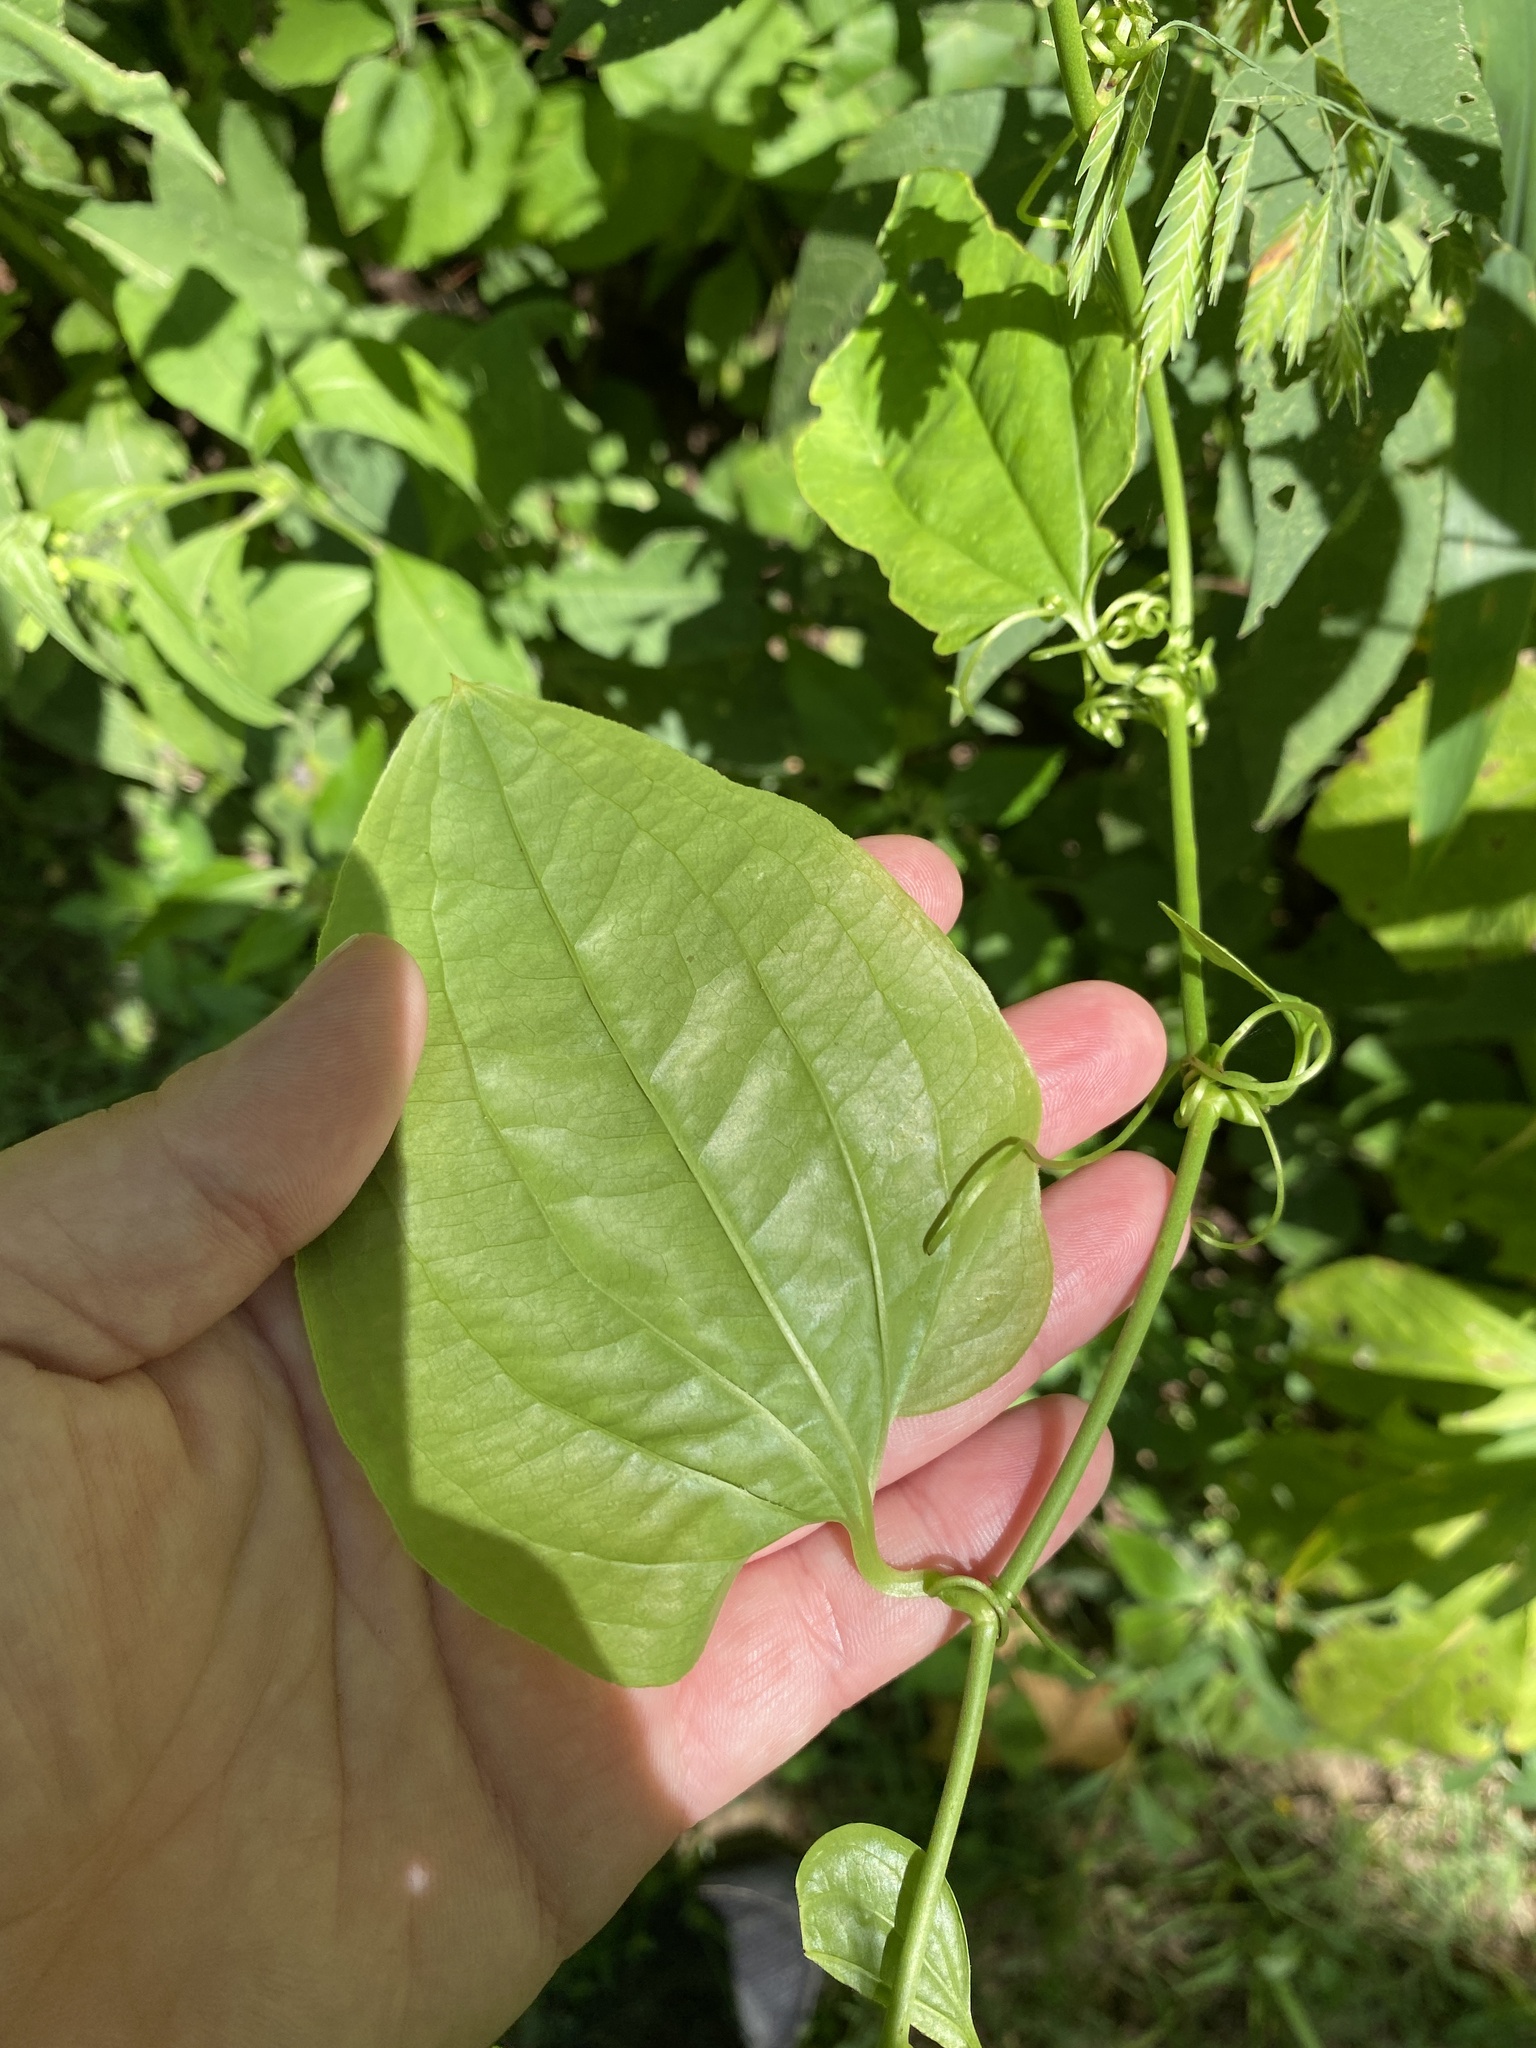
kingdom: Plantae
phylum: Tracheophyta
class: Liliopsida
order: Liliales
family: Smilacaceae
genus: Smilax
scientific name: Smilax tamnoides
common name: Hellfetter
